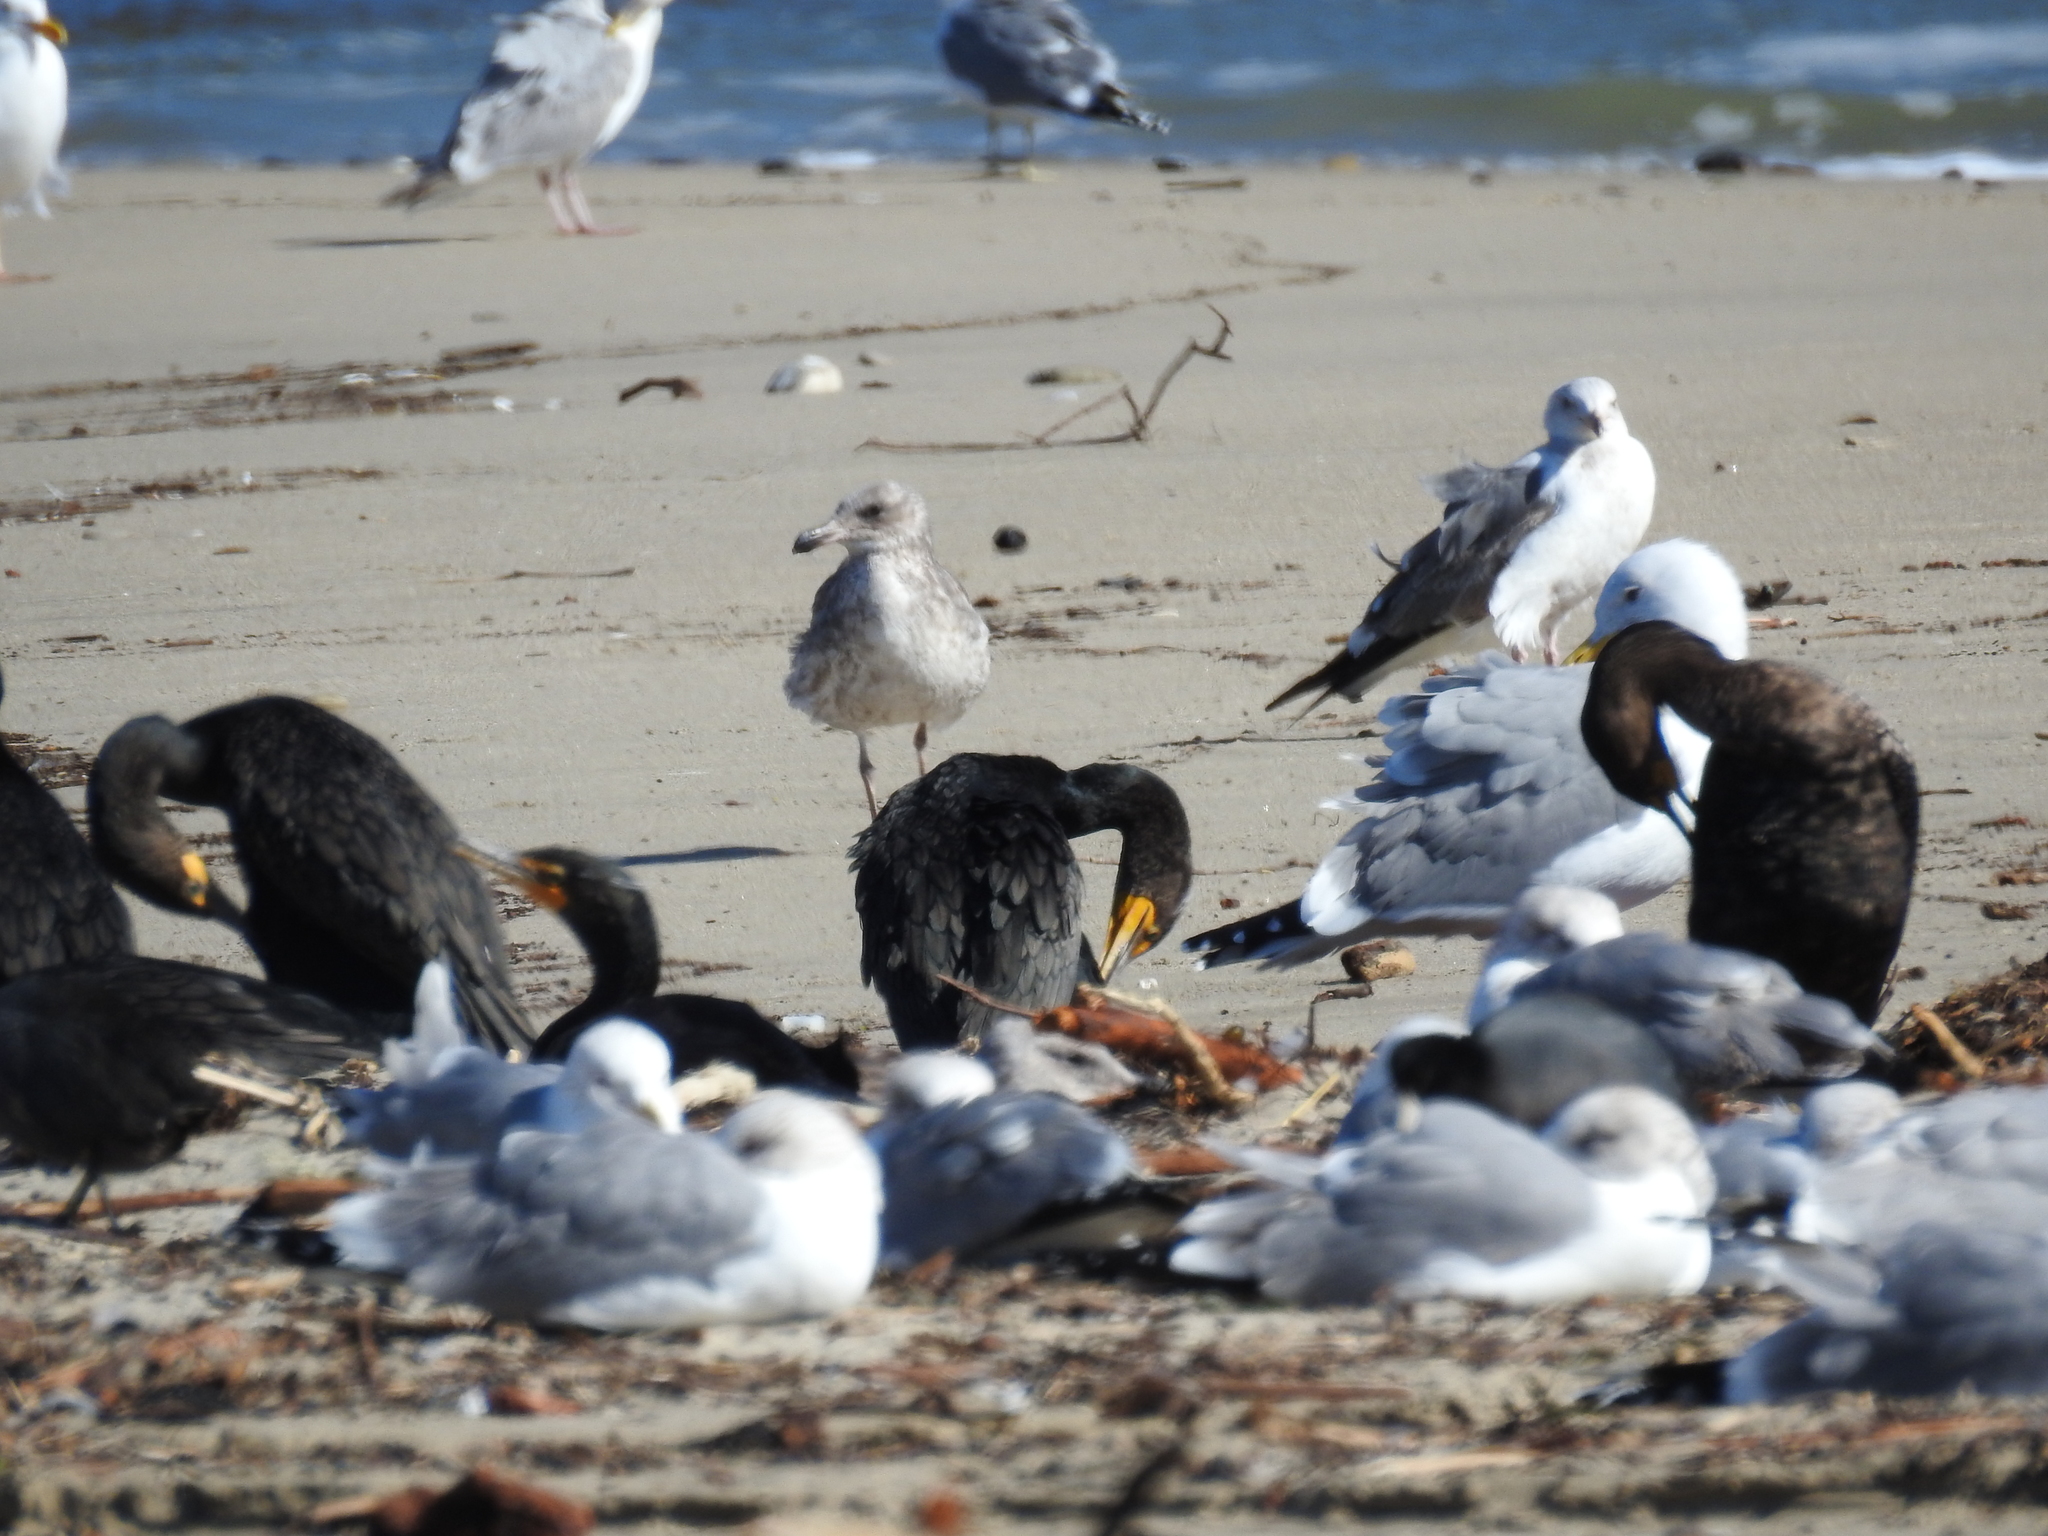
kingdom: Animalia
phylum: Chordata
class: Aves
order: Suliformes
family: Phalacrocoracidae
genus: Phalacrocorax
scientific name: Phalacrocorax auritus
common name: Double-crested cormorant
